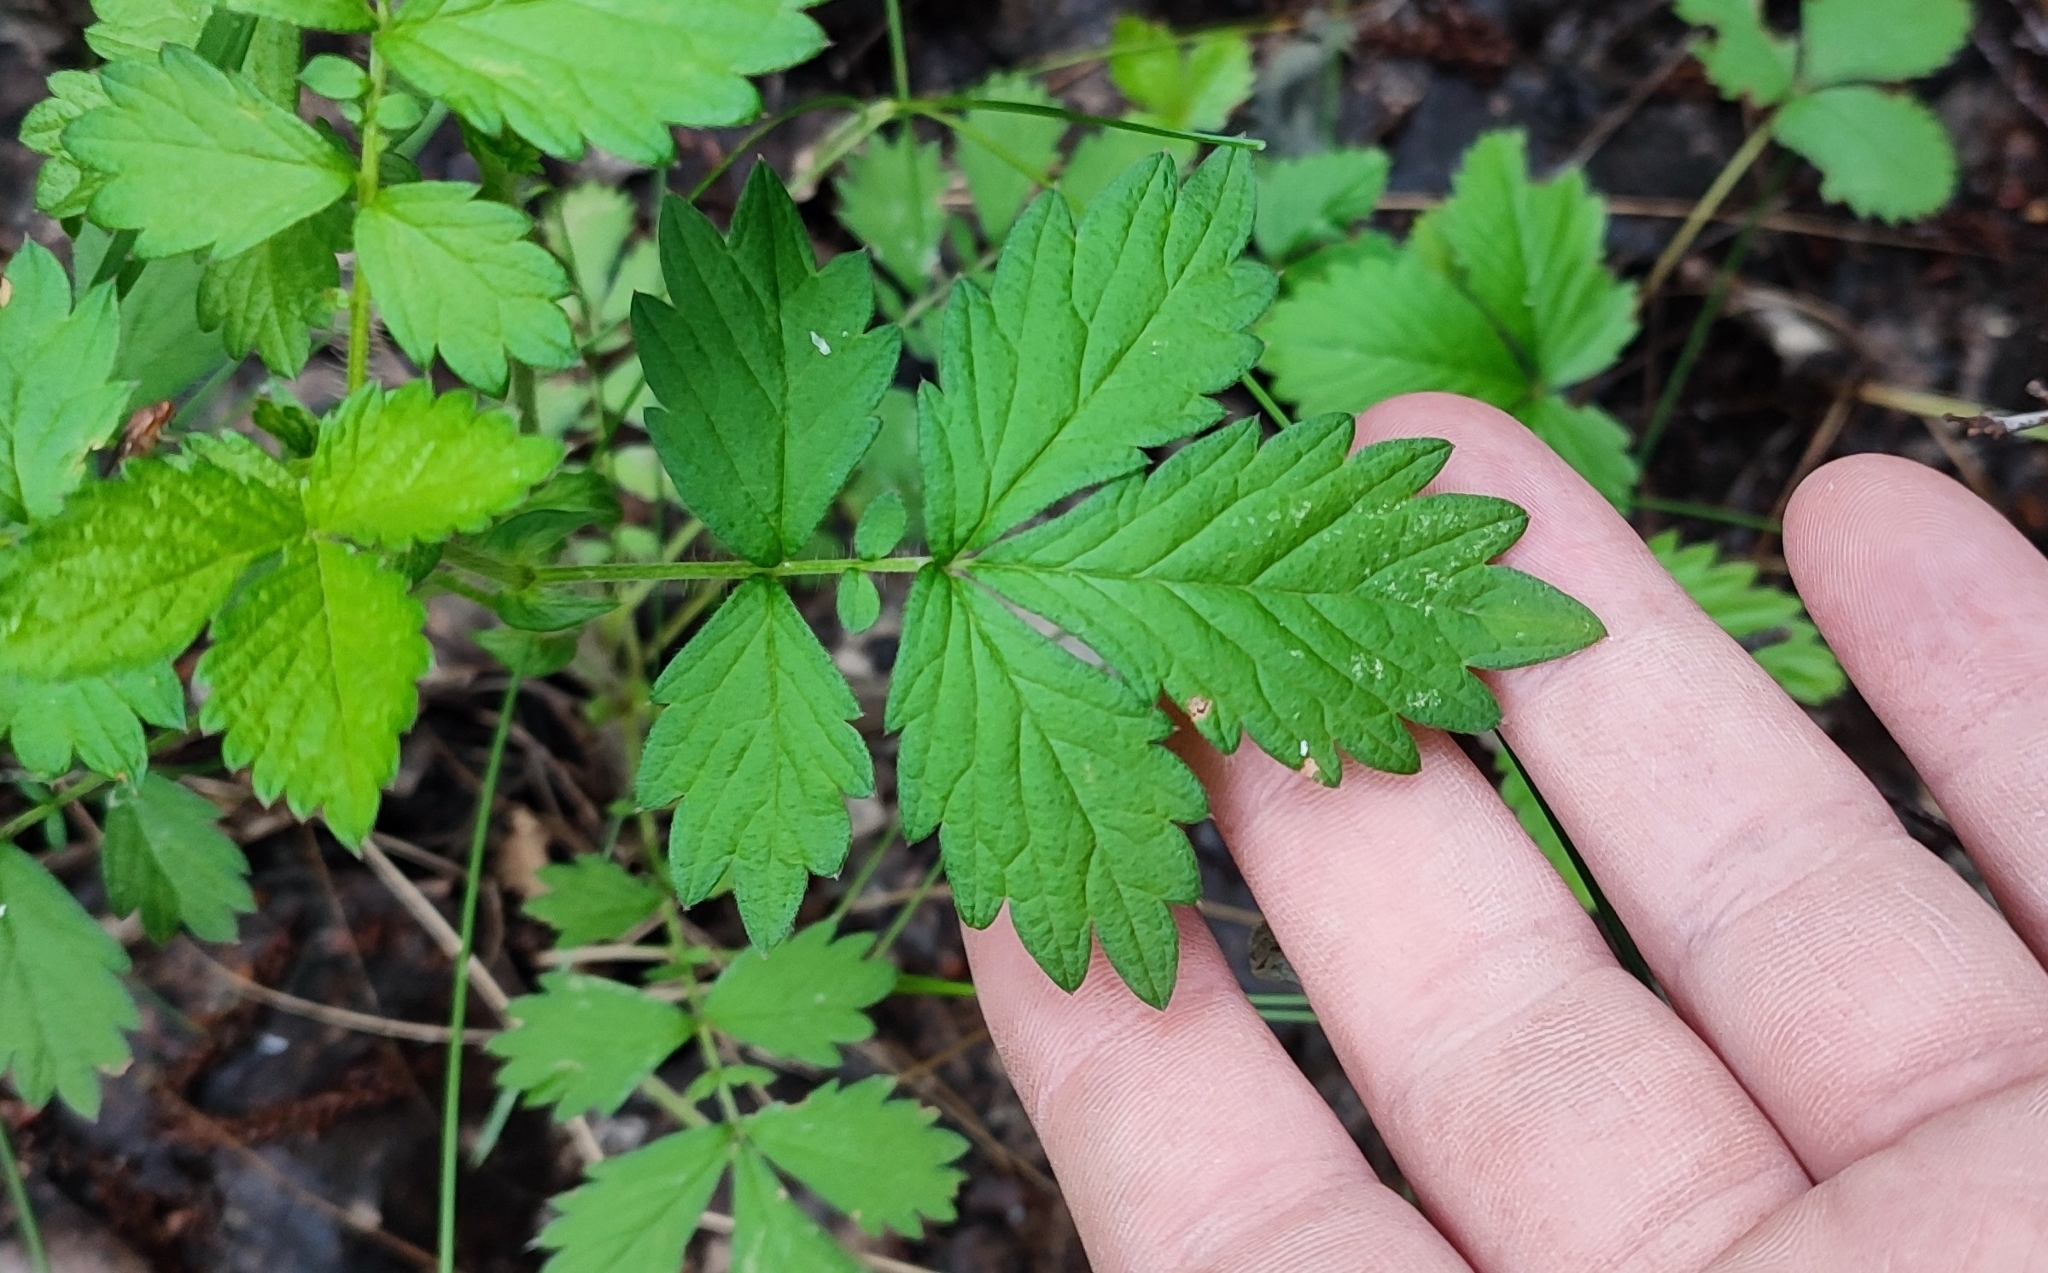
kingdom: Plantae
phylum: Tracheophyta
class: Magnoliopsida
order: Rosales
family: Rosaceae
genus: Agrimonia
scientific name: Agrimonia pilosa
